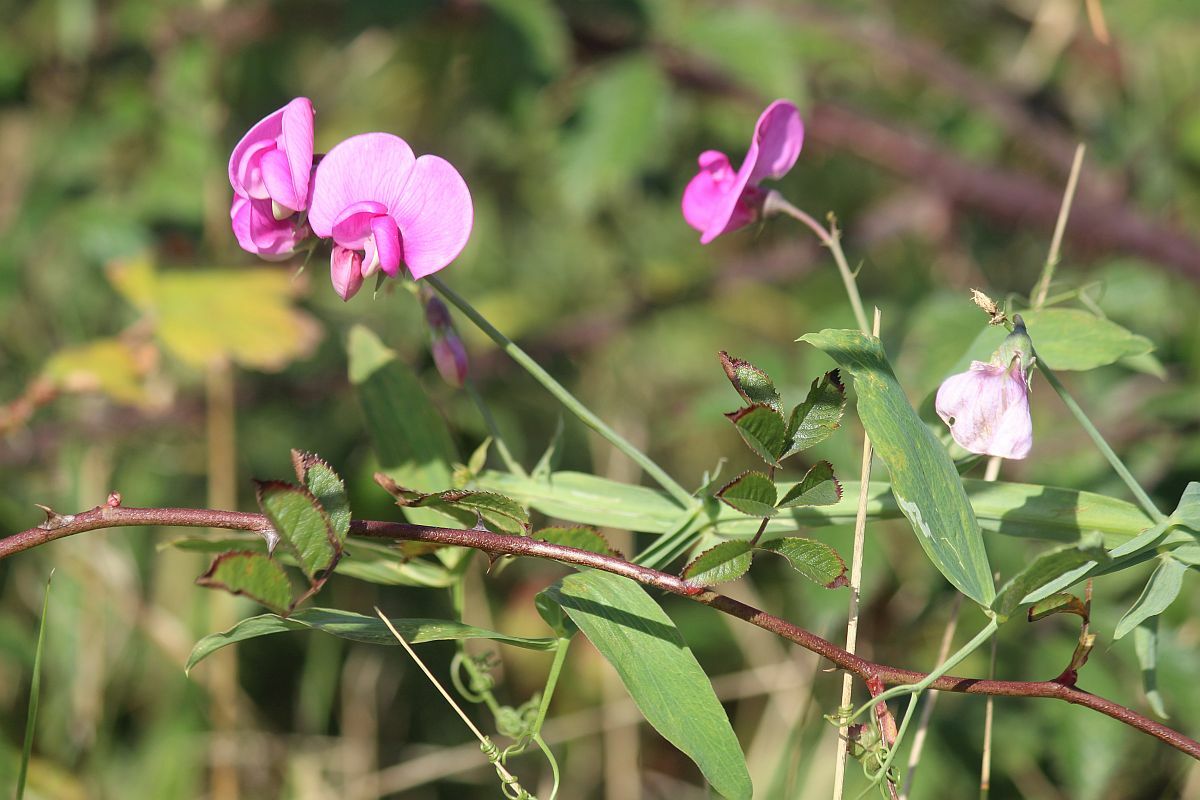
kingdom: Plantae
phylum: Tracheophyta
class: Magnoliopsida
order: Fabales
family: Fabaceae
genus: Lathyrus
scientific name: Lathyrus latifolius
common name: Perennial pea
